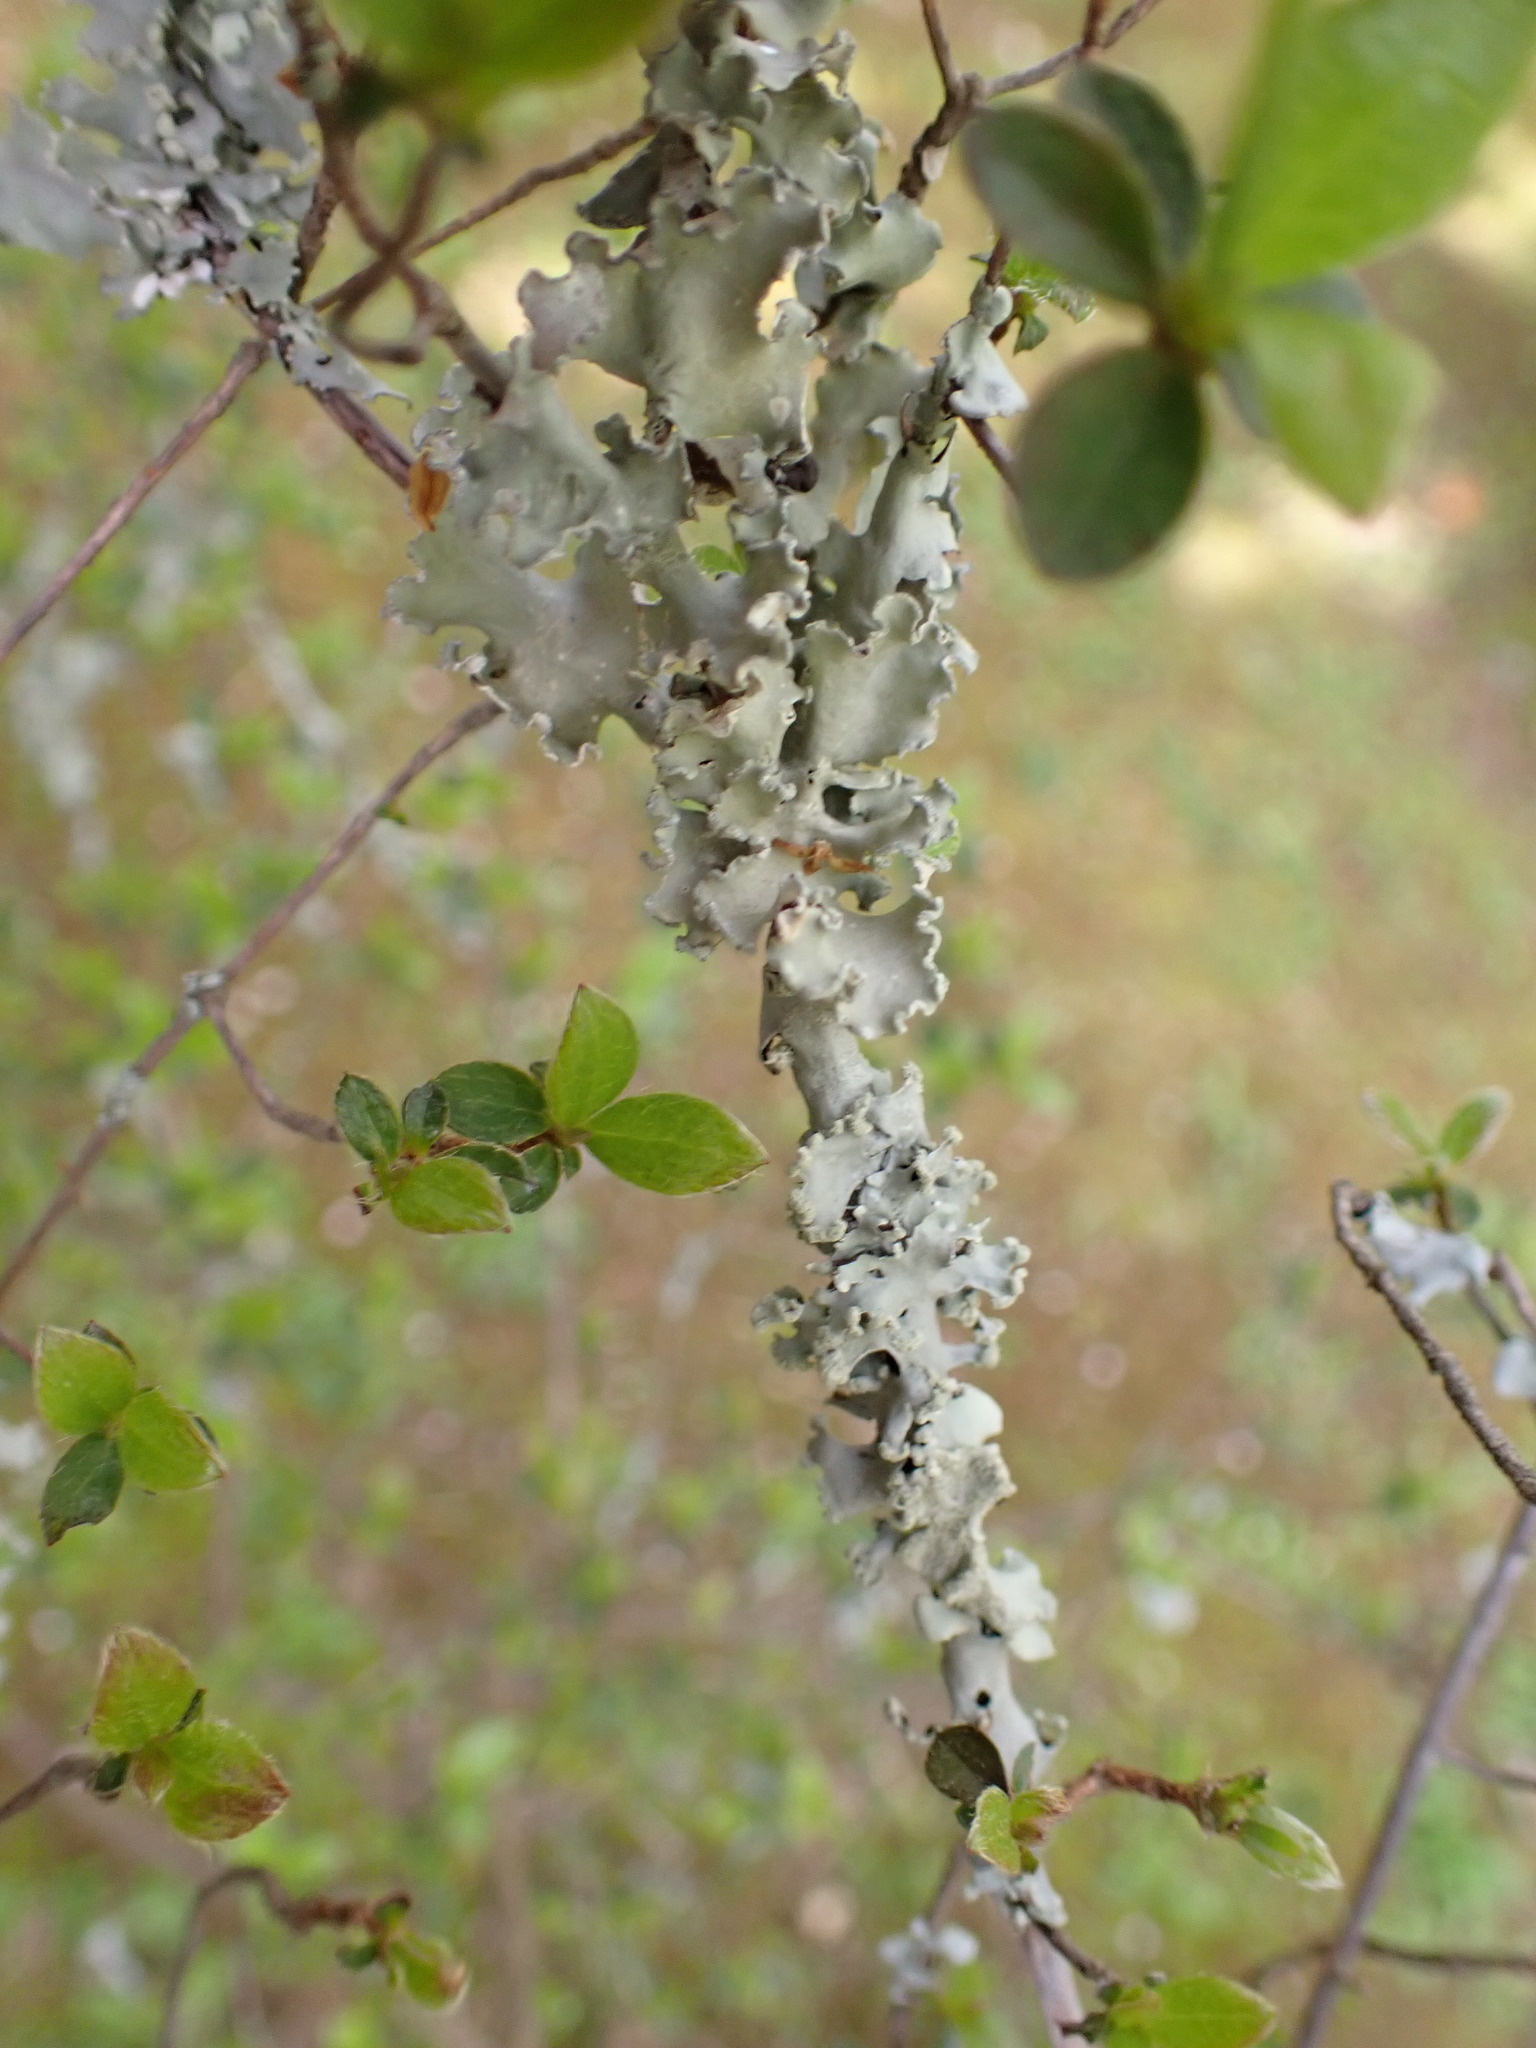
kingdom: Fungi
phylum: Ascomycota
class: Lecanoromycetes
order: Lecanorales
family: Parmeliaceae
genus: Parmotrema
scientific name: Parmotrema clavuliferum
